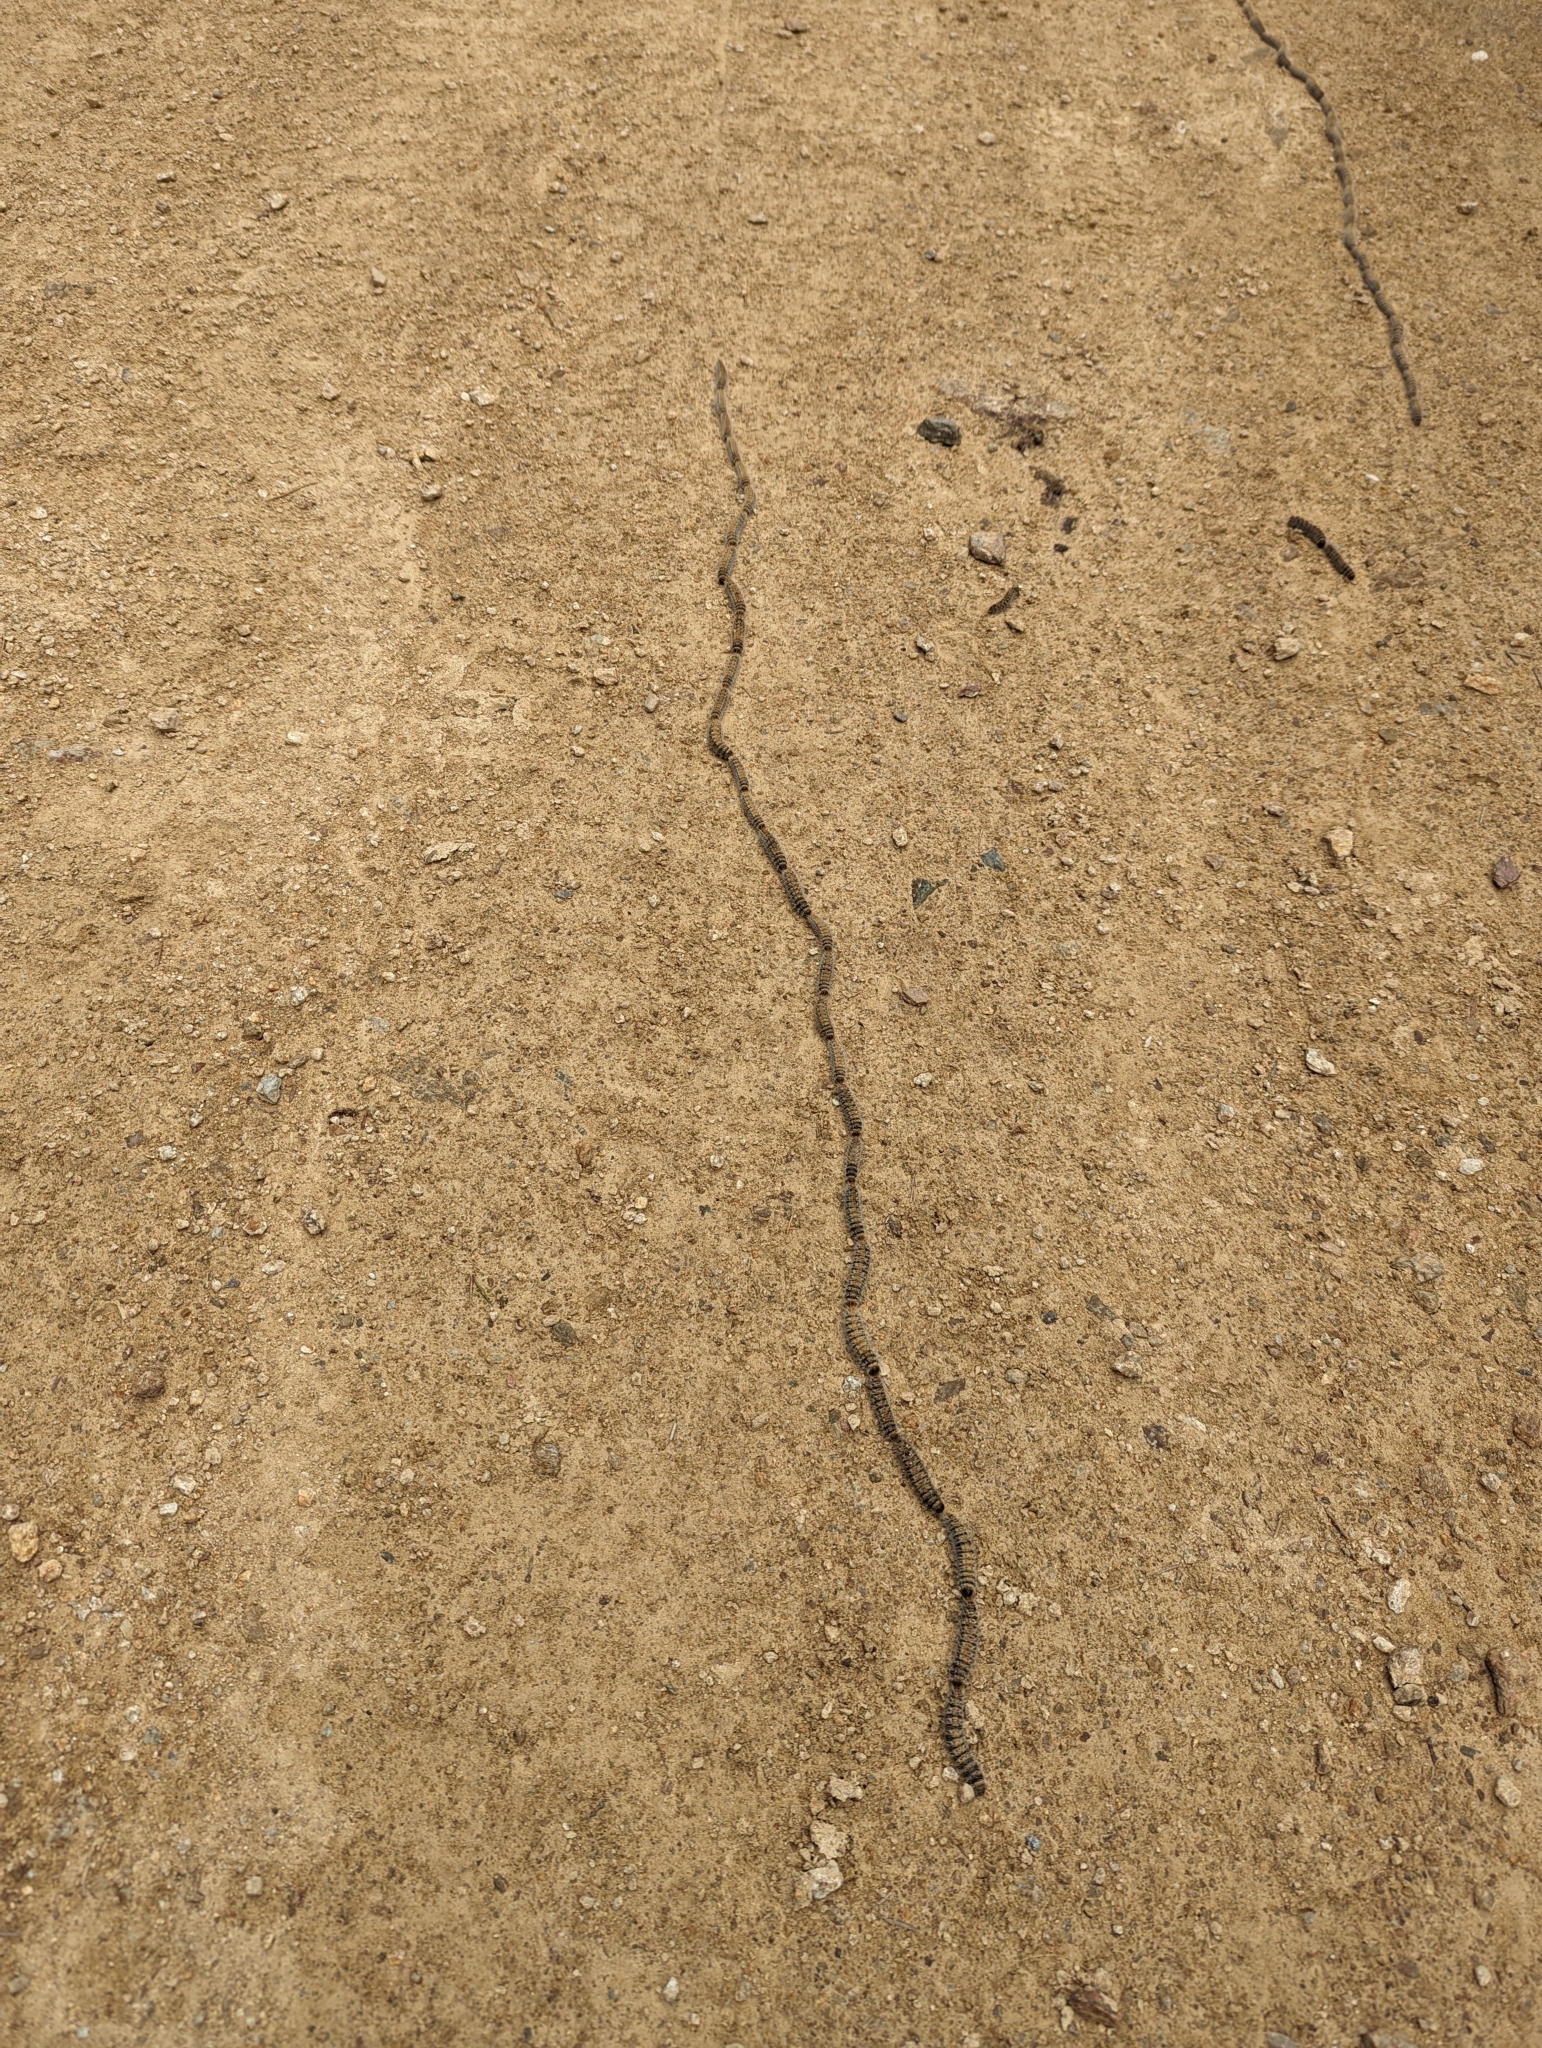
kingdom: Animalia
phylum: Arthropoda
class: Insecta
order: Lepidoptera
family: Notodontidae
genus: Thaumetopoea
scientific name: Thaumetopoea pityocampa
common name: Pine processionary
